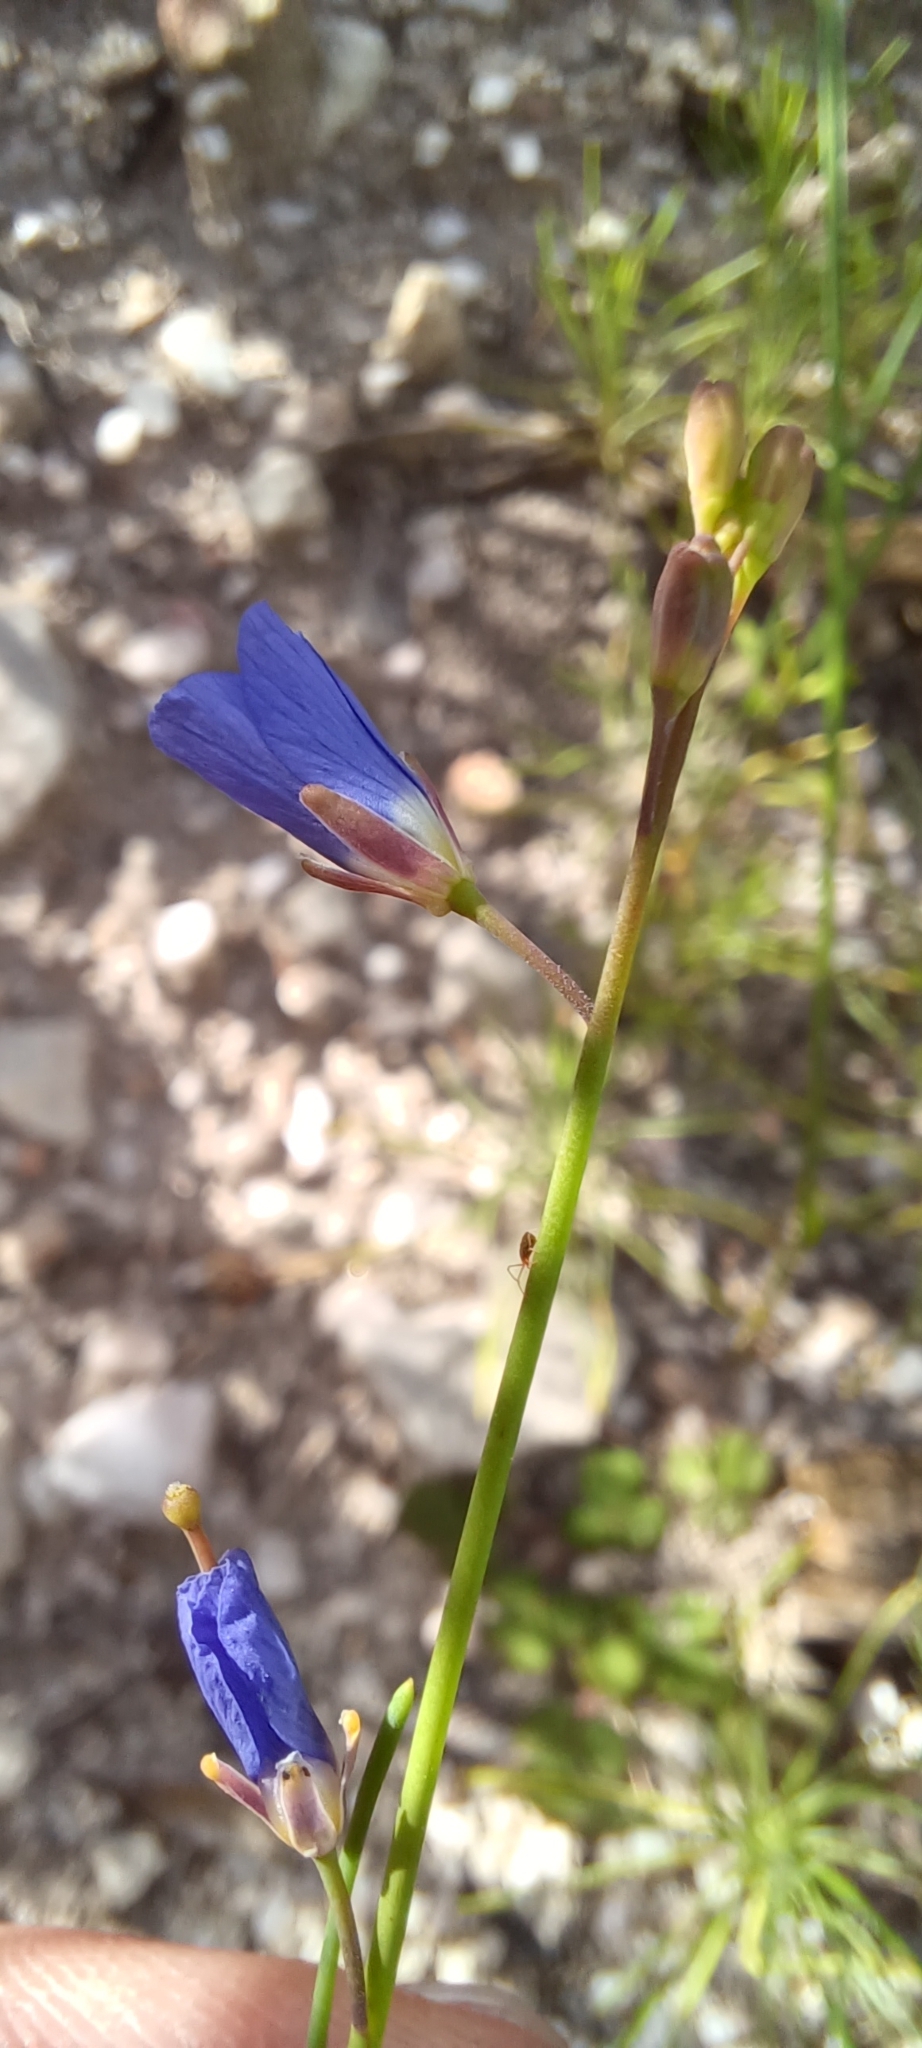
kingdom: Plantae
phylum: Tracheophyta
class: Magnoliopsida
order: Brassicales
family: Brassicaceae
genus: Heliophila
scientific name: Heliophila bulbostyla
